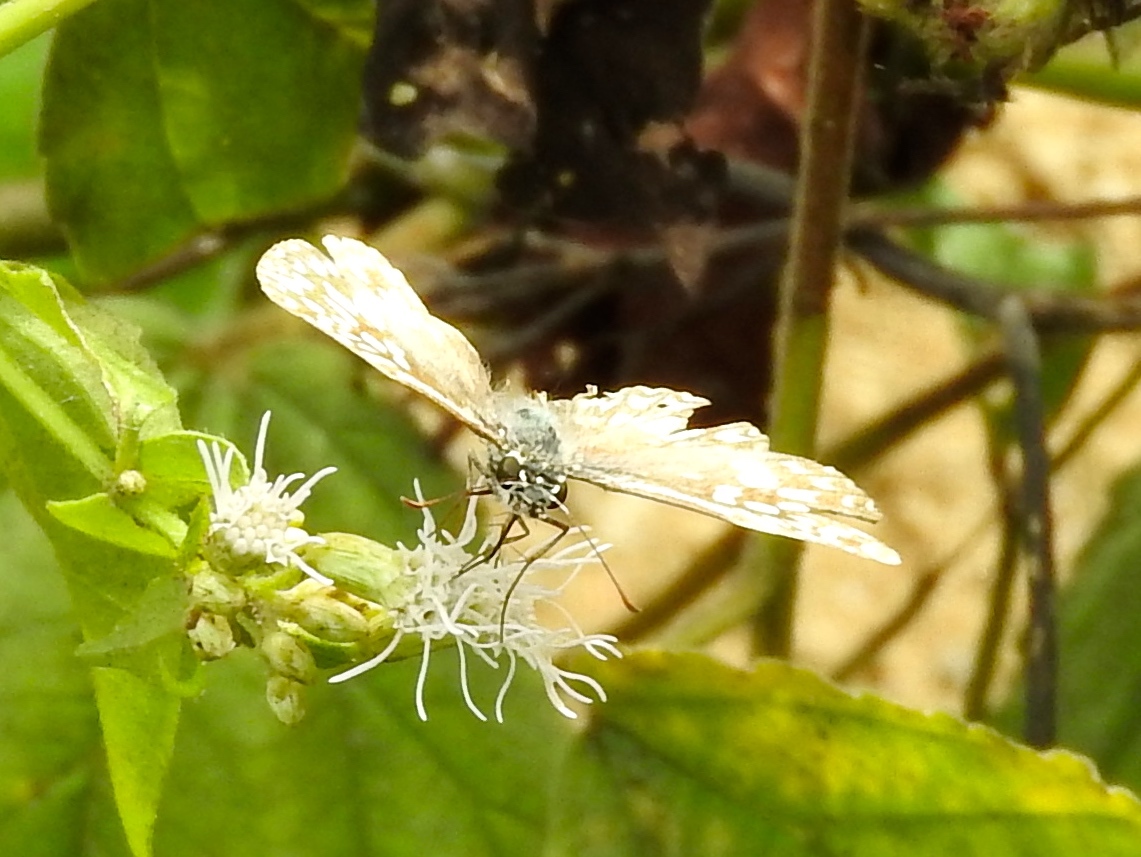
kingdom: Animalia
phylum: Arthropoda
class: Insecta
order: Lepidoptera
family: Hesperiidae
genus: Burnsius
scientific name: Burnsius
